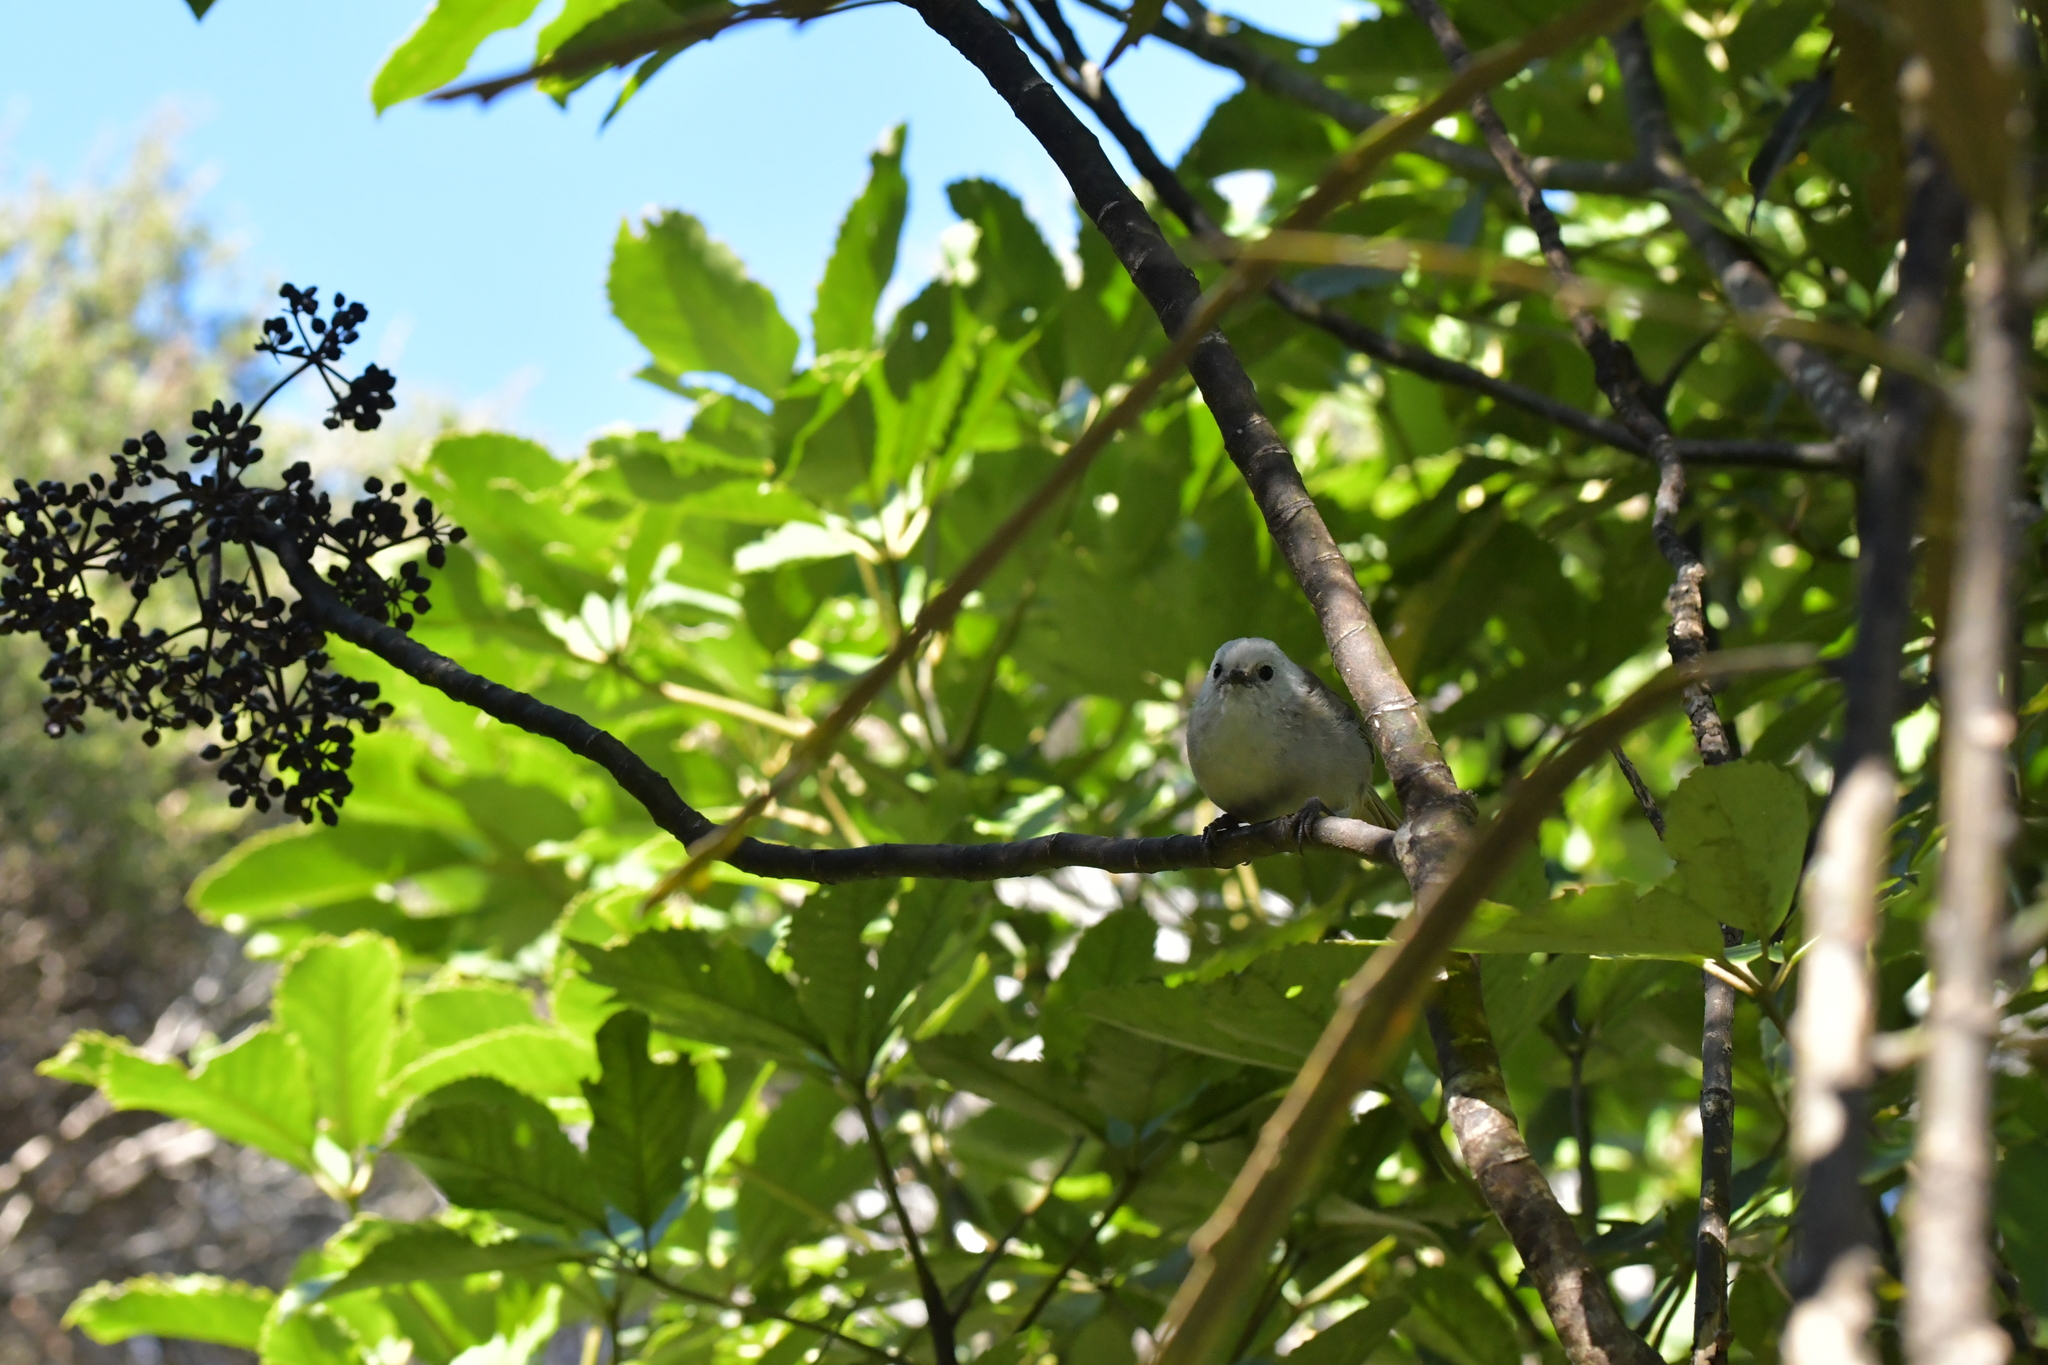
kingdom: Animalia
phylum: Chordata
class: Aves
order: Passeriformes
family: Acanthizidae
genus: Mohoua
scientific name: Mohoua albicilla
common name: Whitehead
